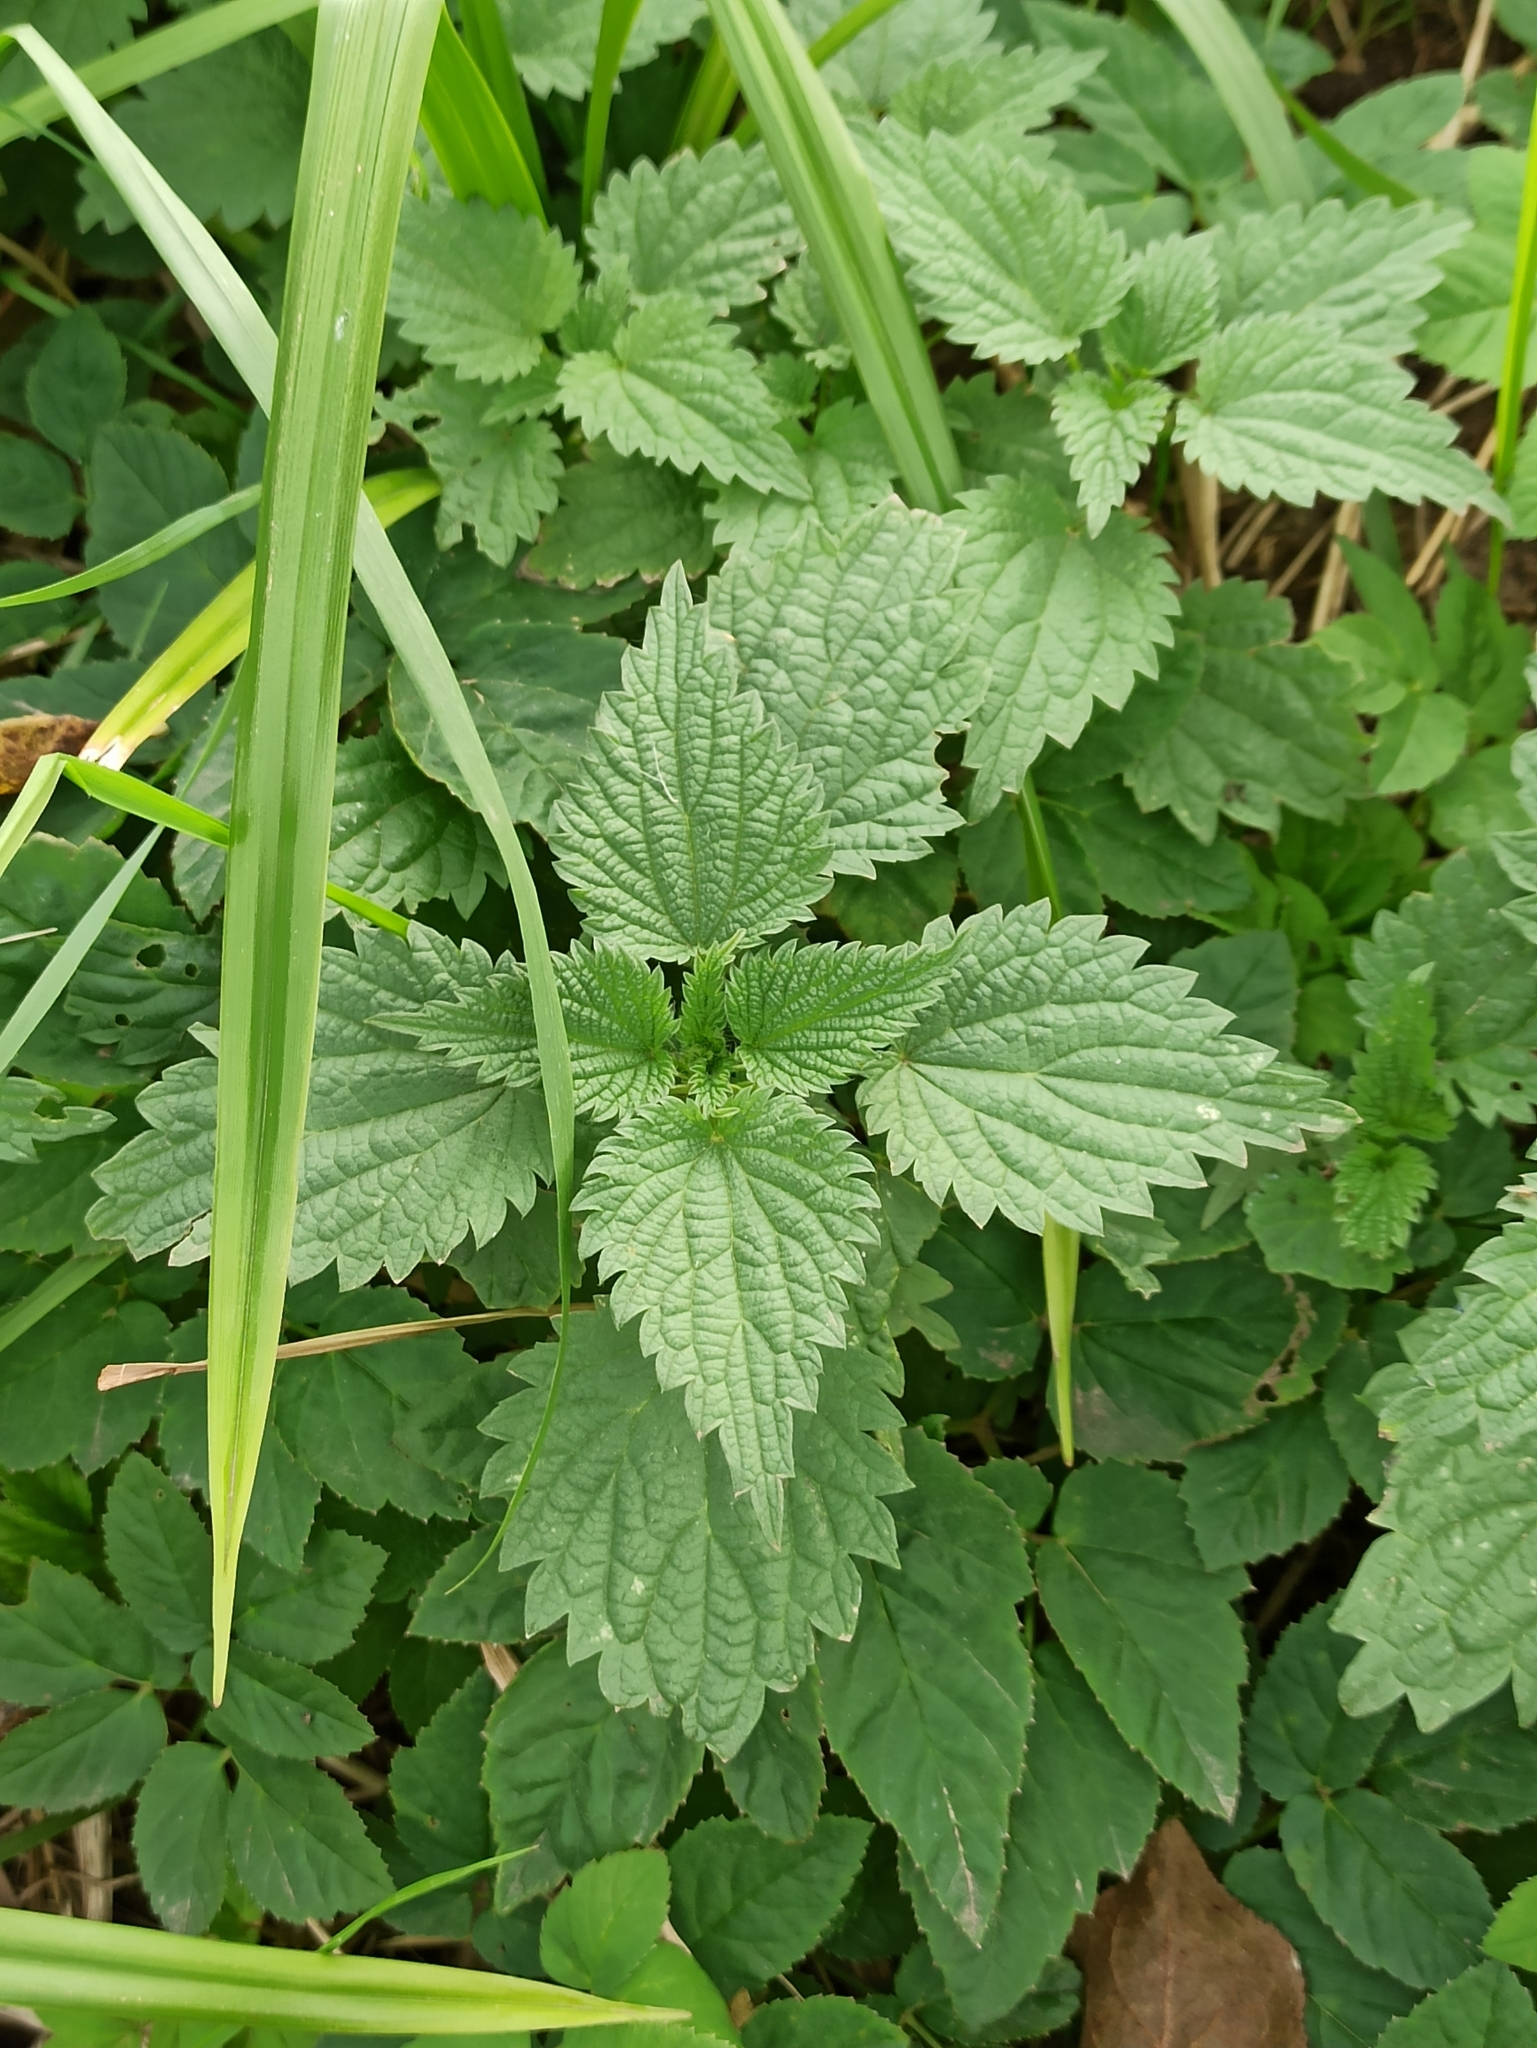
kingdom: Plantae
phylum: Tracheophyta
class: Magnoliopsida
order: Rosales
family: Urticaceae
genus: Urtica
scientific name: Urtica dioica
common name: Common nettle
